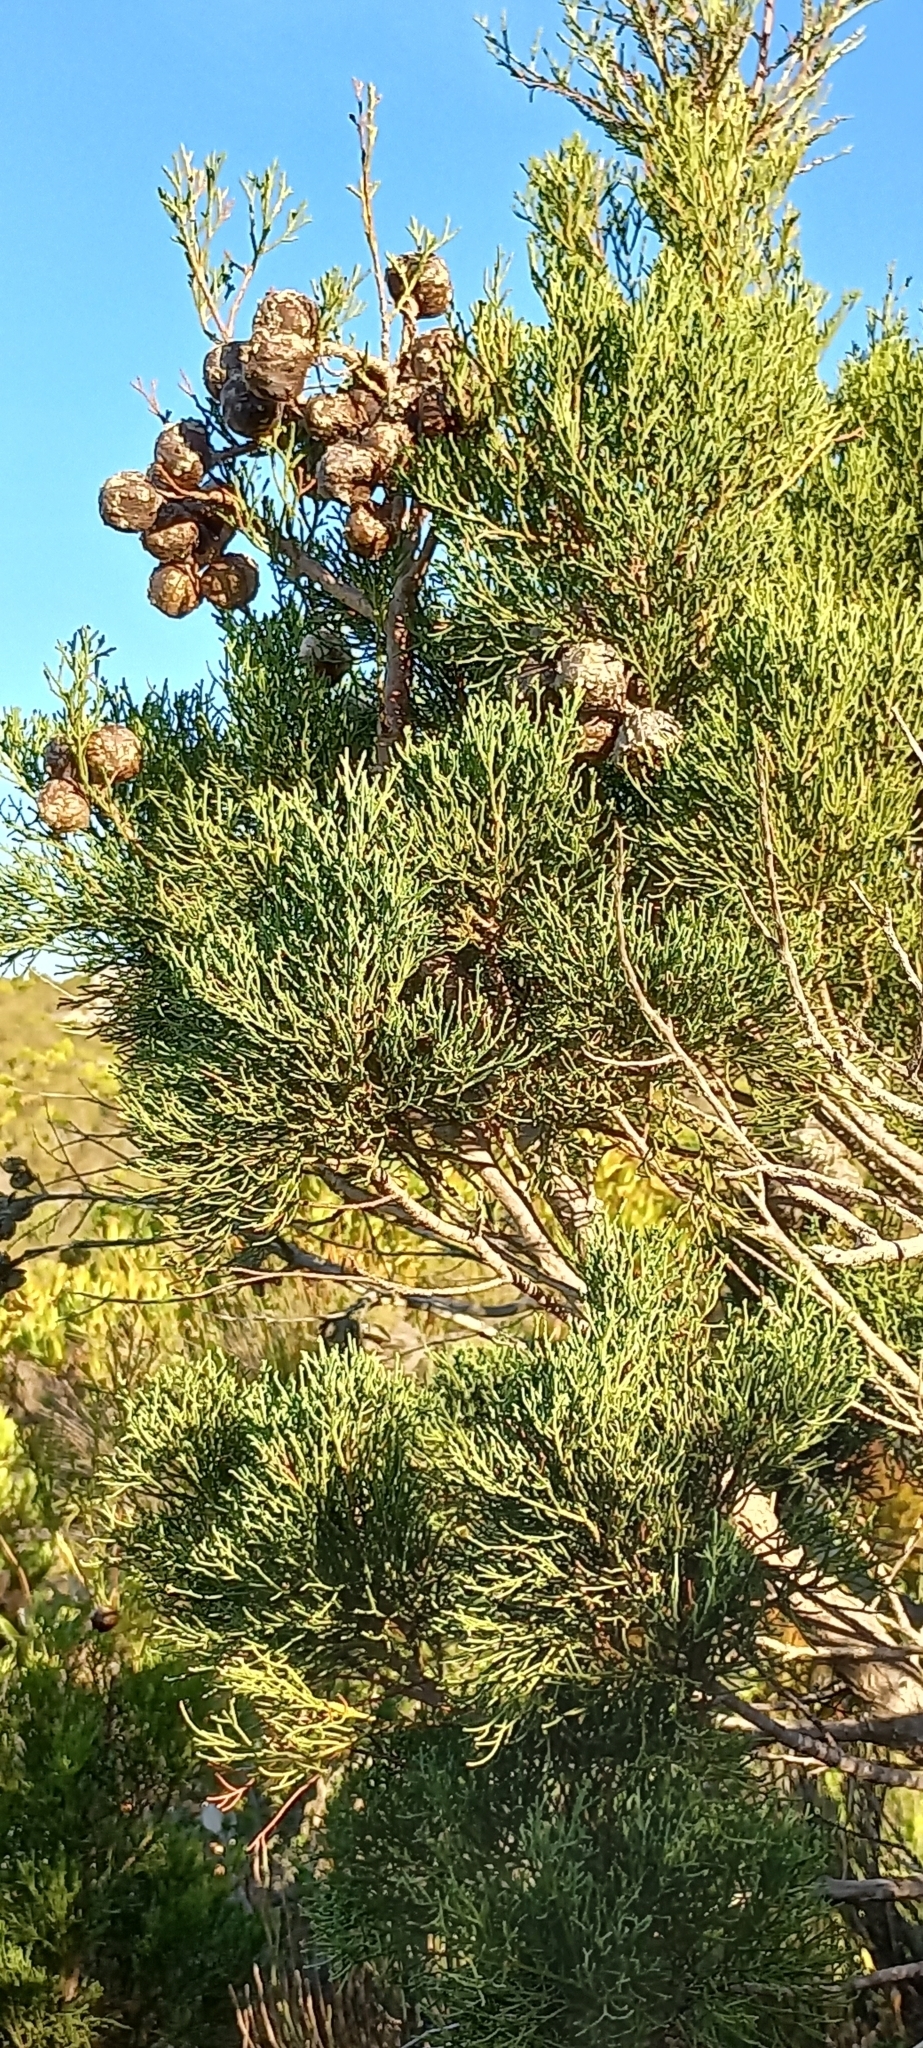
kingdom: Plantae
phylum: Tracheophyta
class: Pinopsida
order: Pinales
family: Cupressaceae
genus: Widdringtonia
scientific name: Widdringtonia nodiflora
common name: Cape cypress
